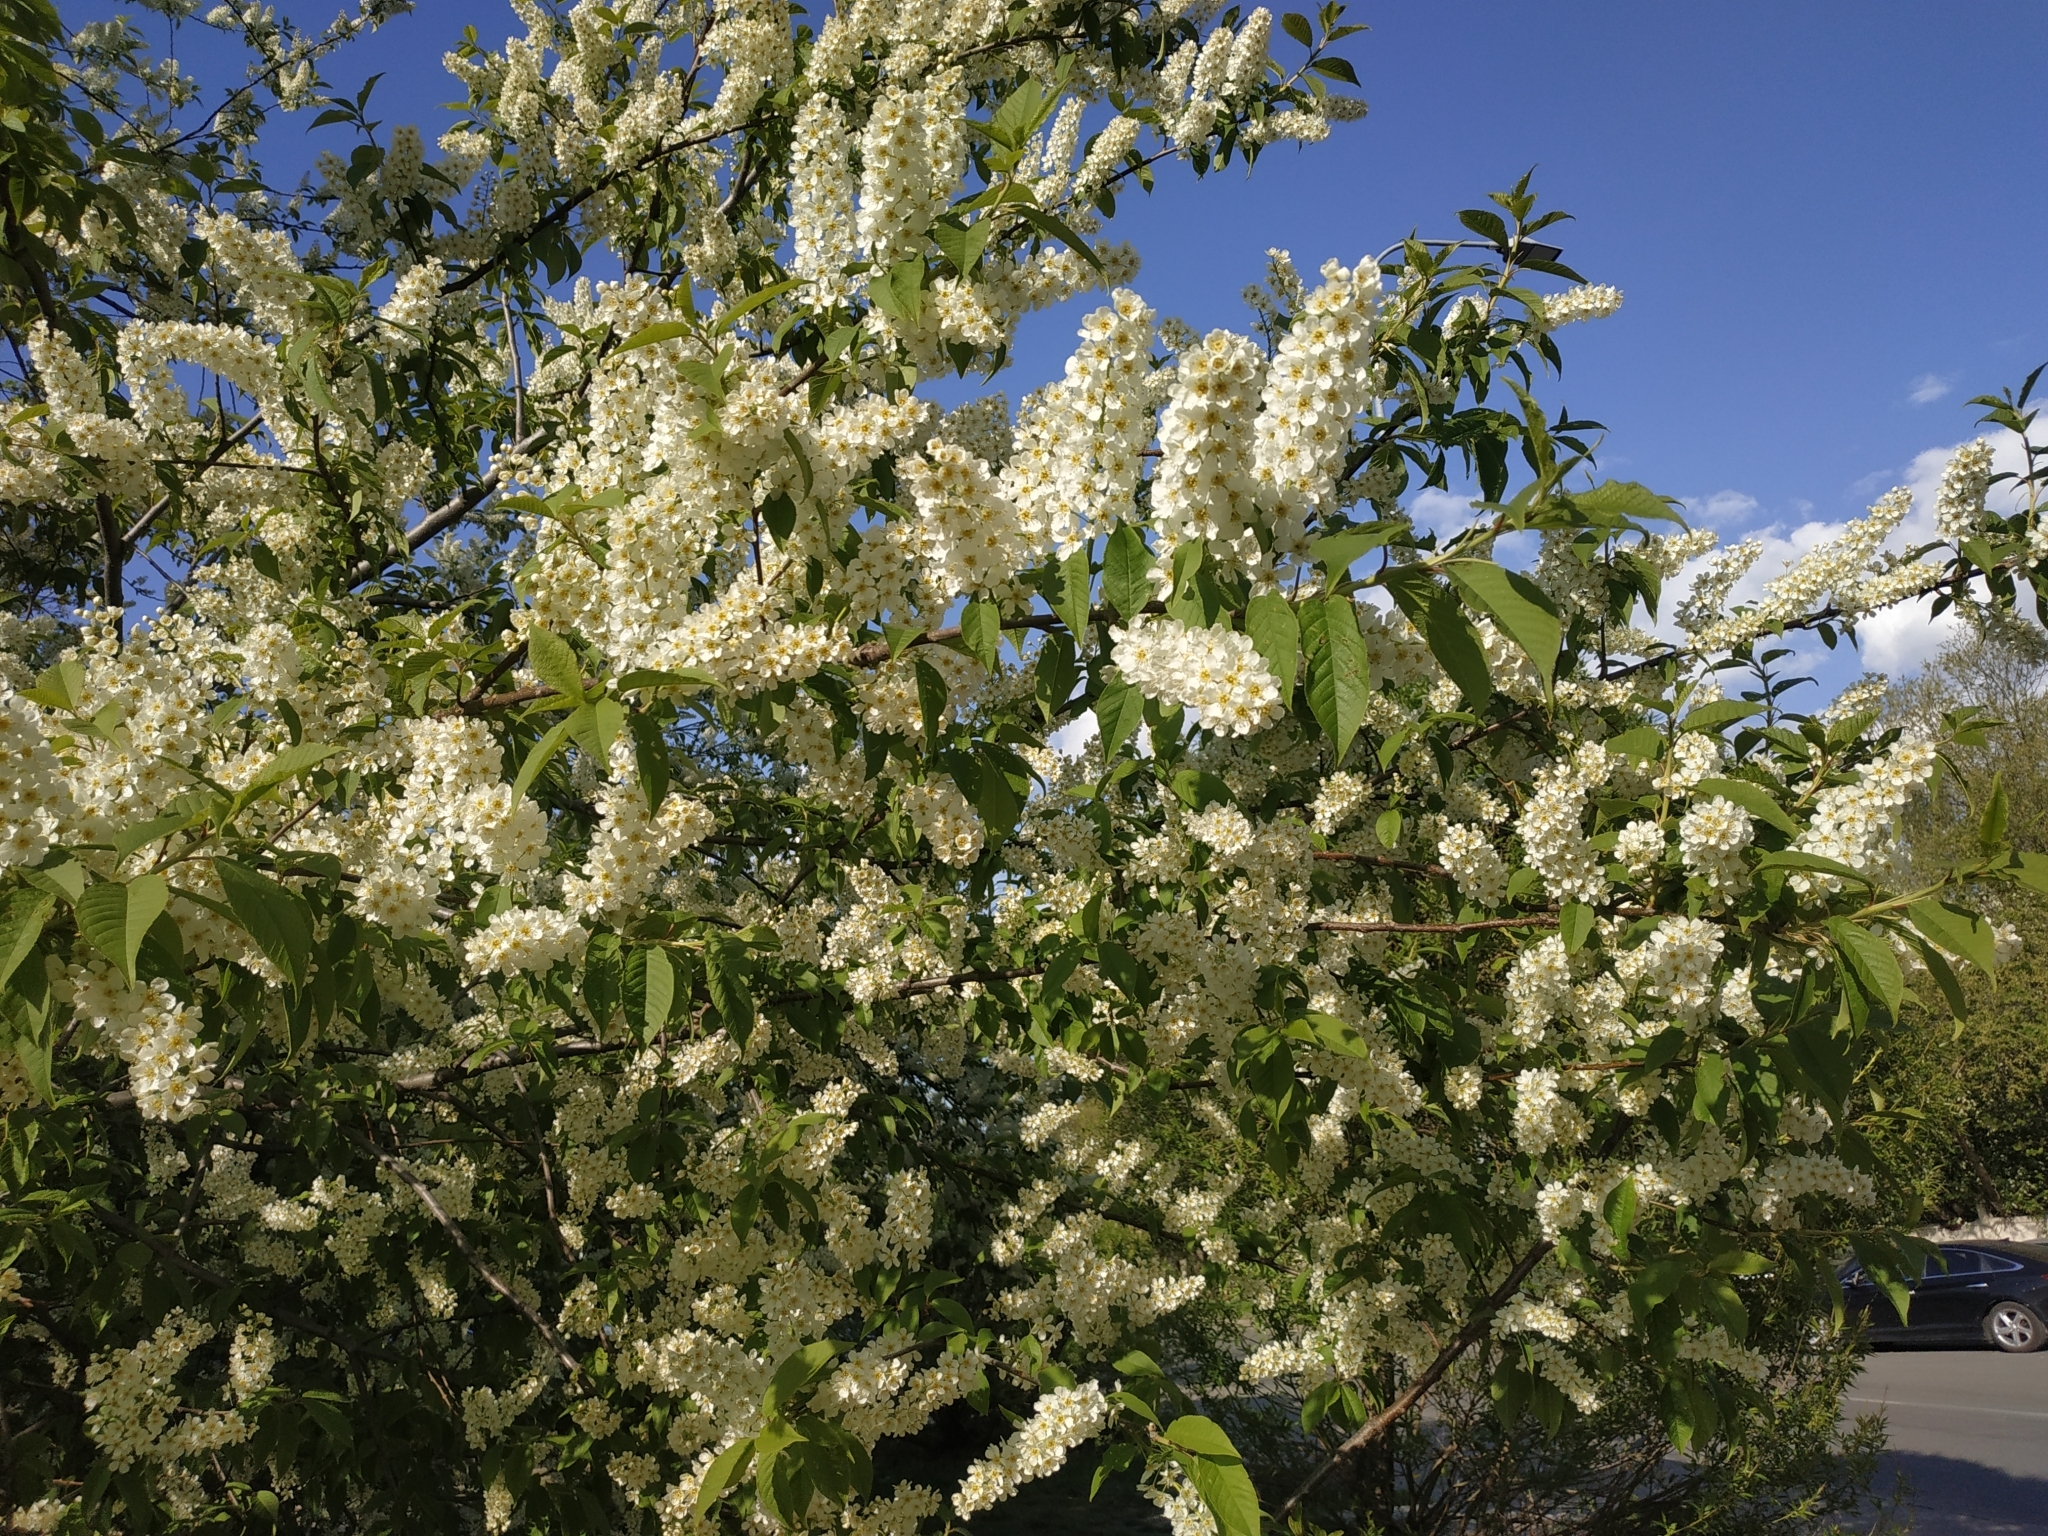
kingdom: Plantae
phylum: Tracheophyta
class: Magnoliopsida
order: Rosales
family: Rosaceae
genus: Prunus
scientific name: Prunus padus
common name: Bird cherry
